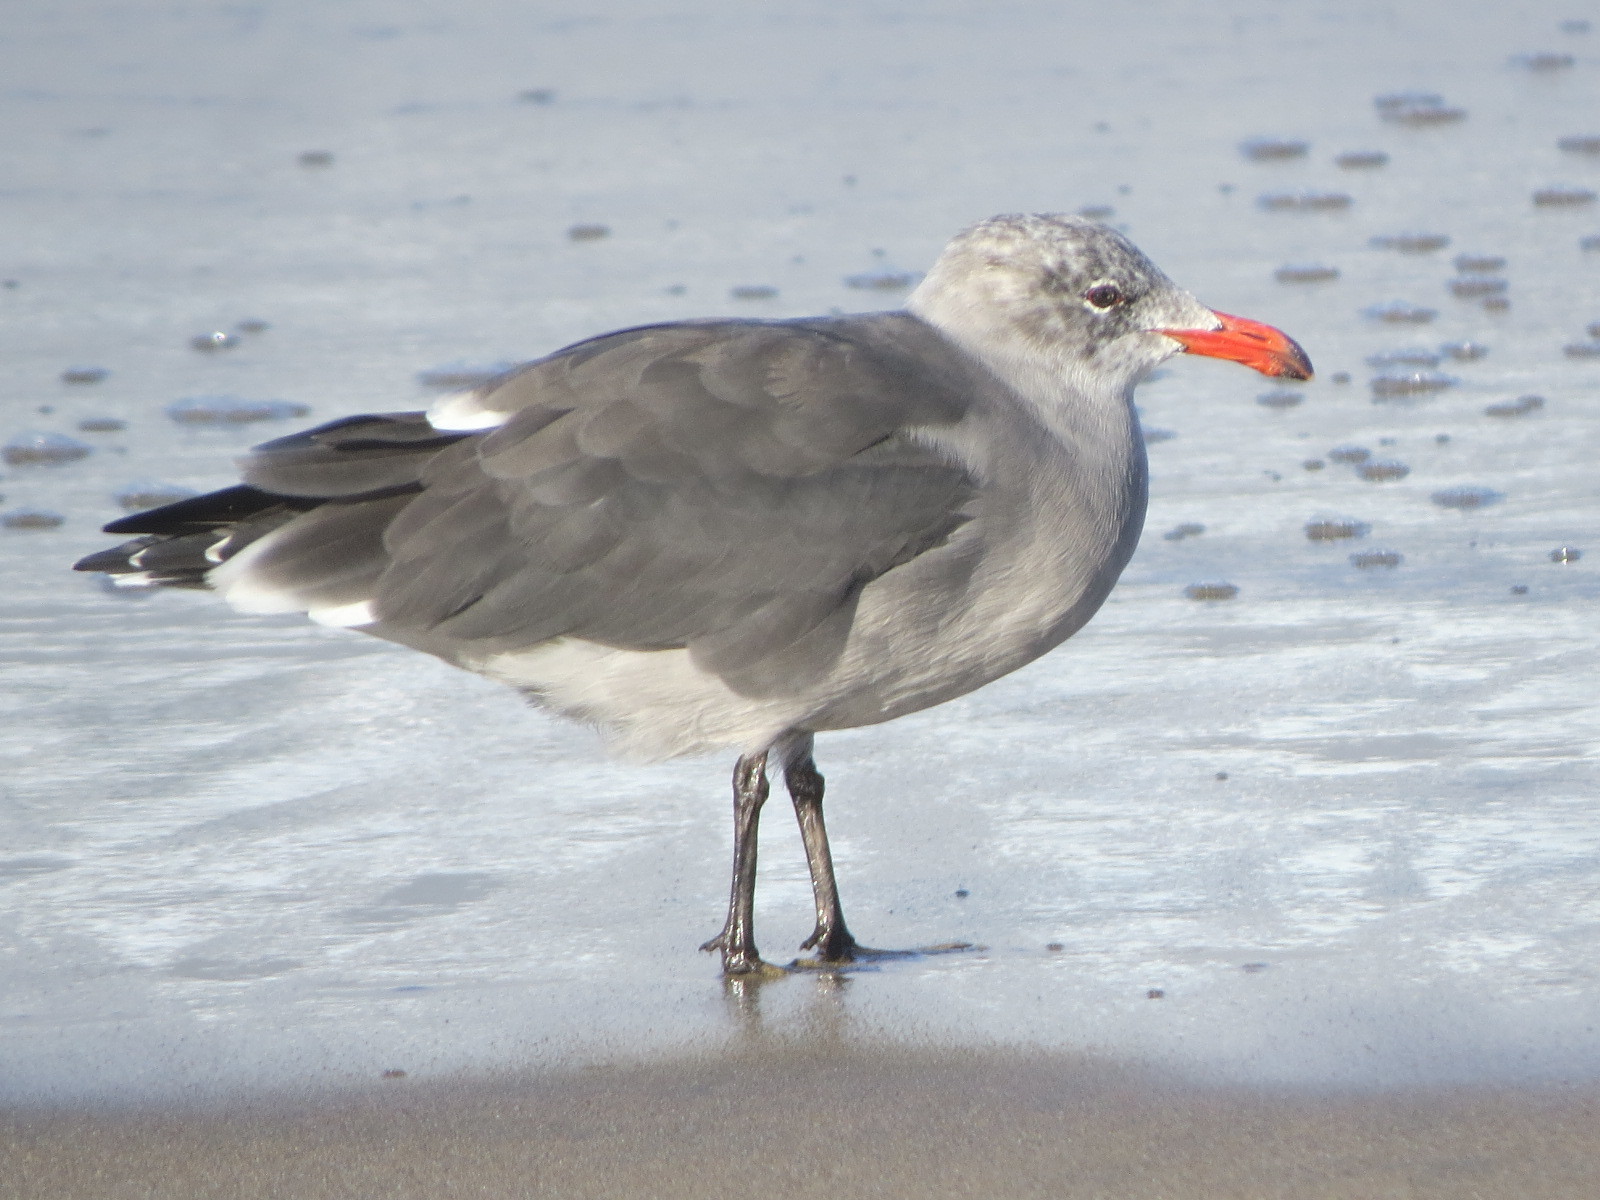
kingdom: Animalia
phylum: Chordata
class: Aves
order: Charadriiformes
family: Laridae
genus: Larus
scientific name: Larus heermanni
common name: Heermann's gull
